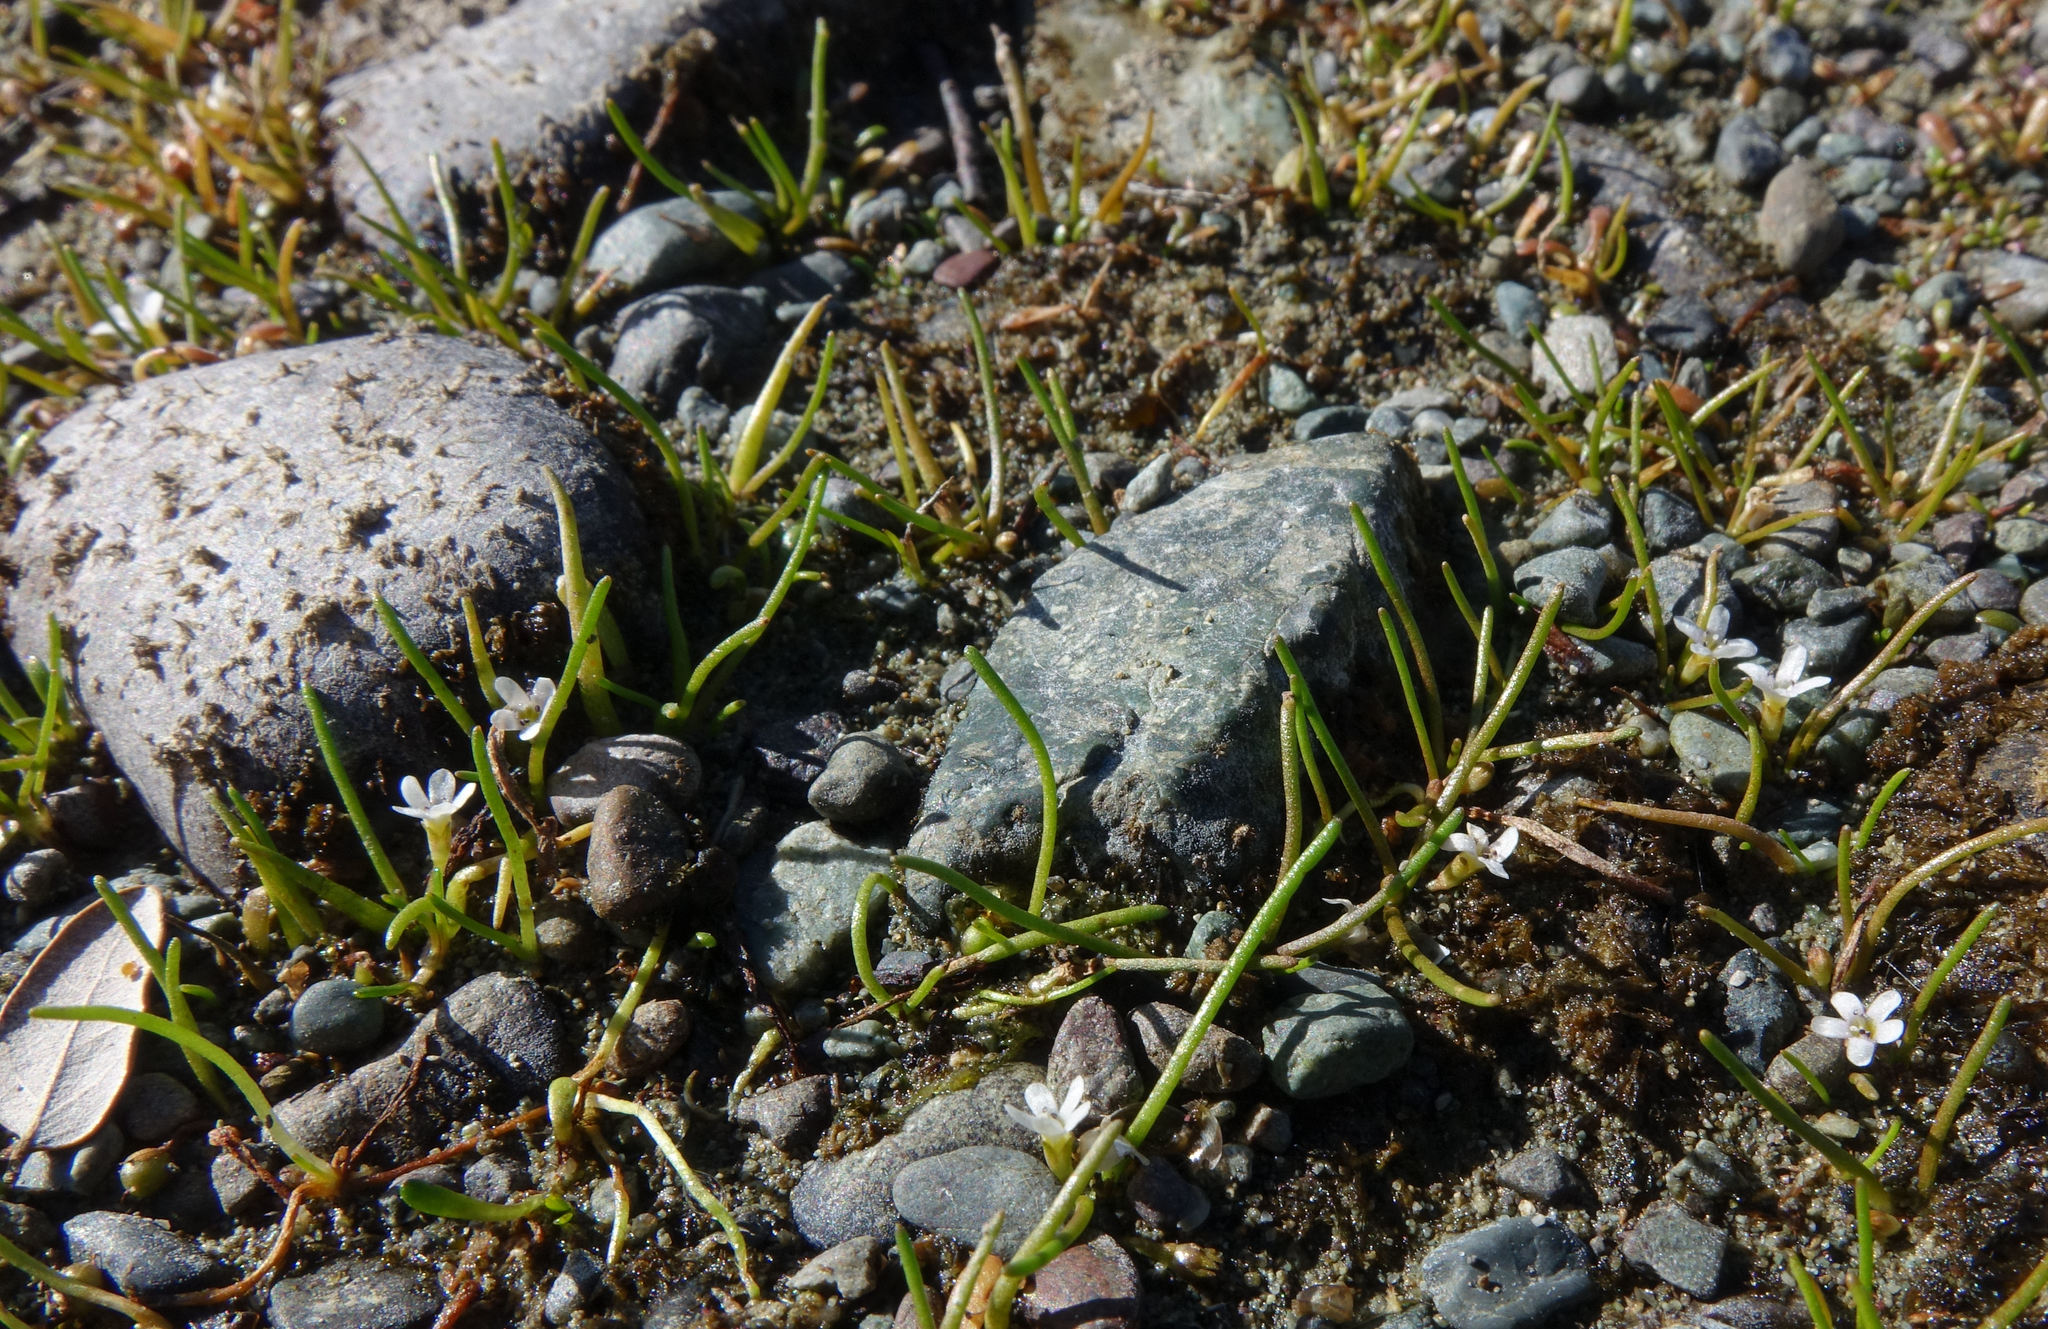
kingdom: Plantae
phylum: Tracheophyta
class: Magnoliopsida
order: Lamiales
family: Scrophulariaceae
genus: Limosella
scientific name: Limosella australis
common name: Welsh mudwort
